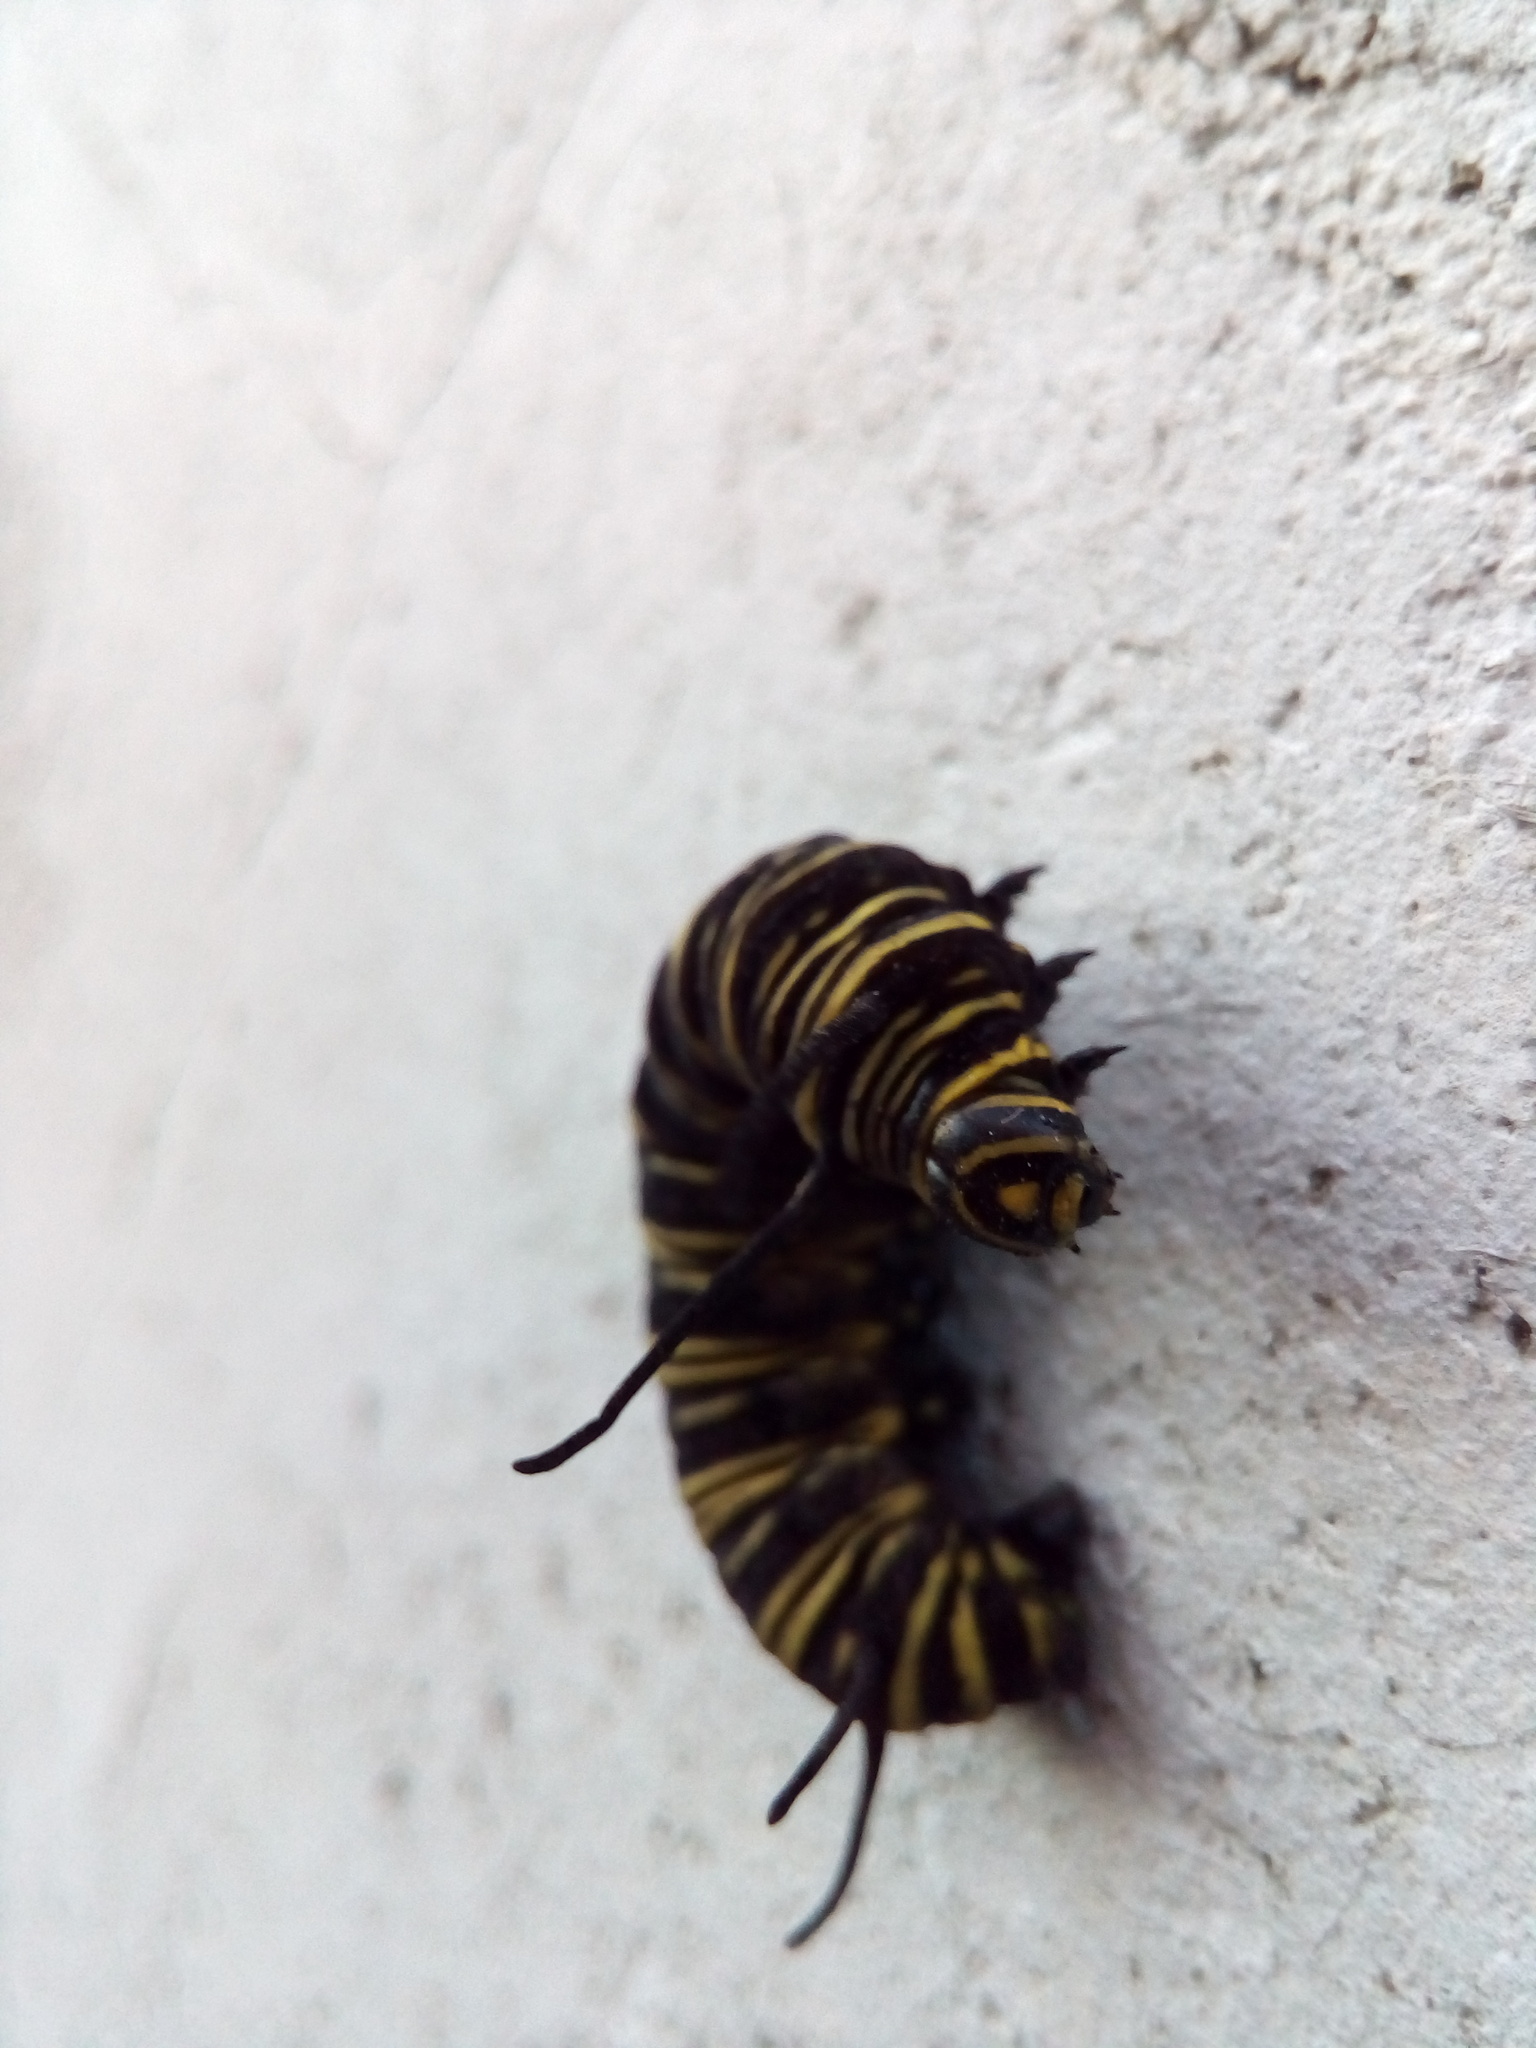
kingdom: Animalia
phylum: Arthropoda
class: Insecta
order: Lepidoptera
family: Nymphalidae
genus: Danaus
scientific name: Danaus erippus
